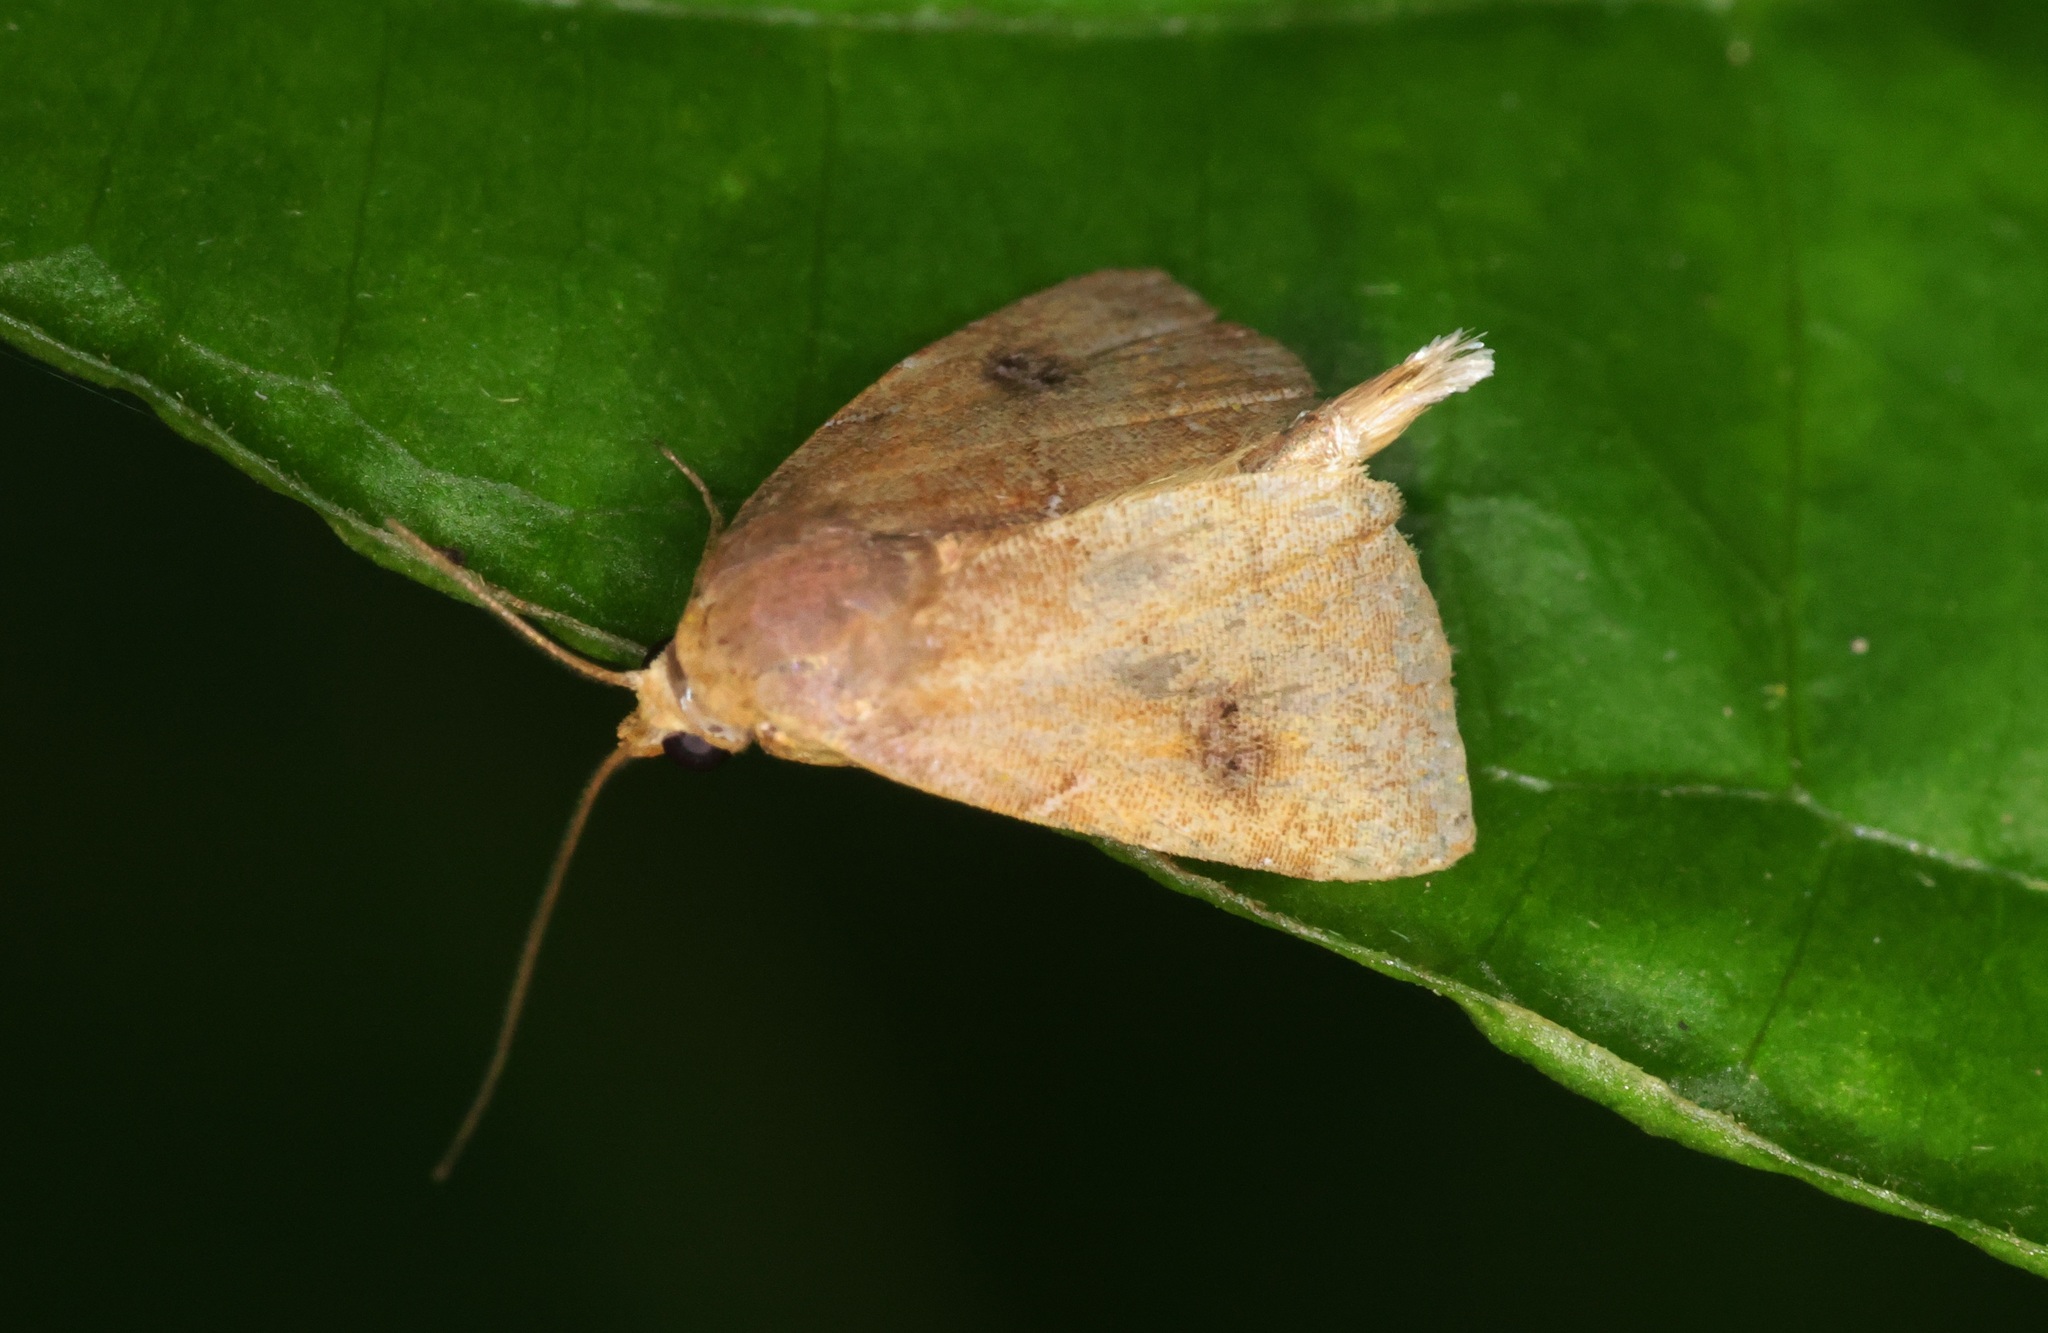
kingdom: Animalia
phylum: Arthropoda
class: Insecta
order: Lepidoptera
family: Erebidae
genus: Rivula
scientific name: Rivula bioculalis
